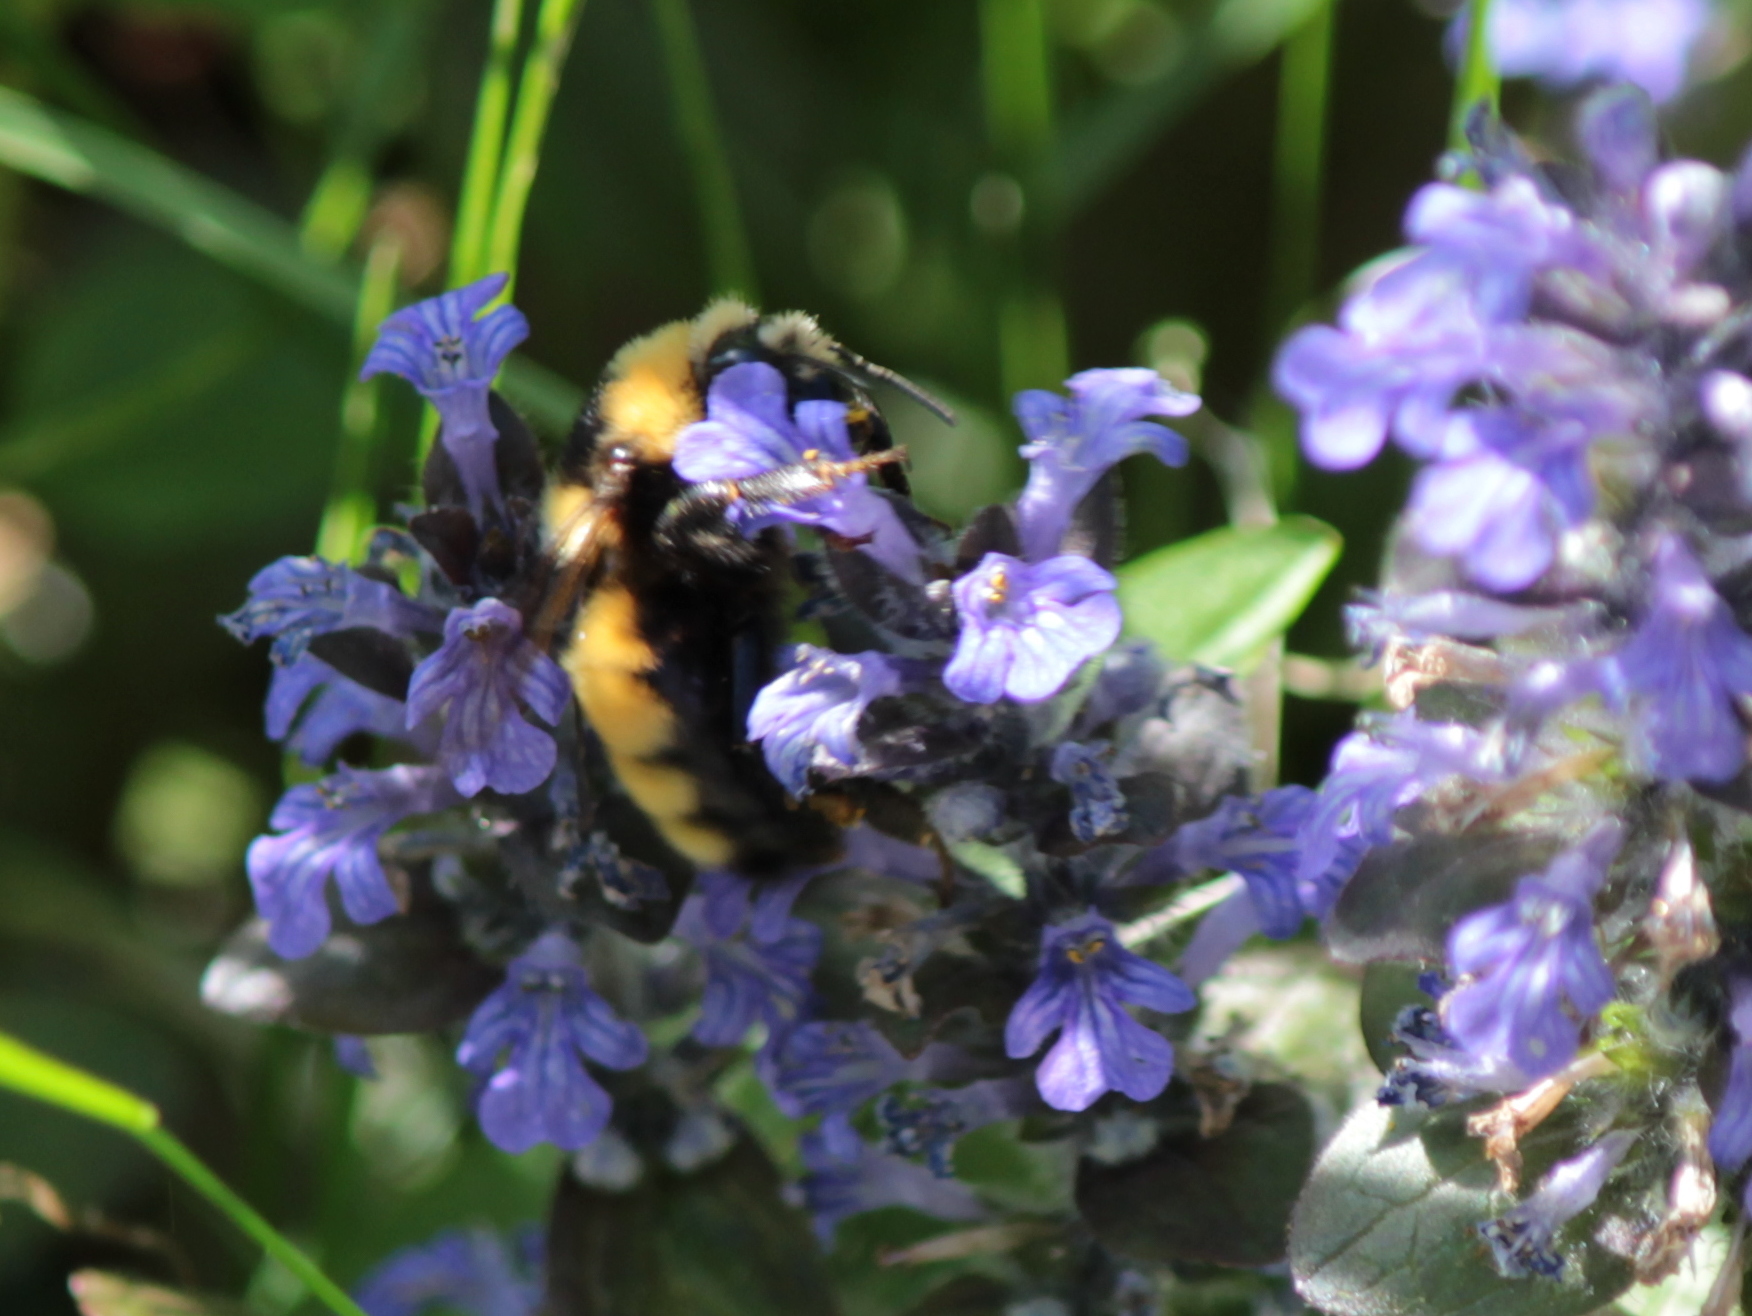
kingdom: Animalia
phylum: Arthropoda
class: Insecta
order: Hymenoptera
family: Apidae
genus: Bombus
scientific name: Bombus borealis
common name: Northern amber bumble bee
